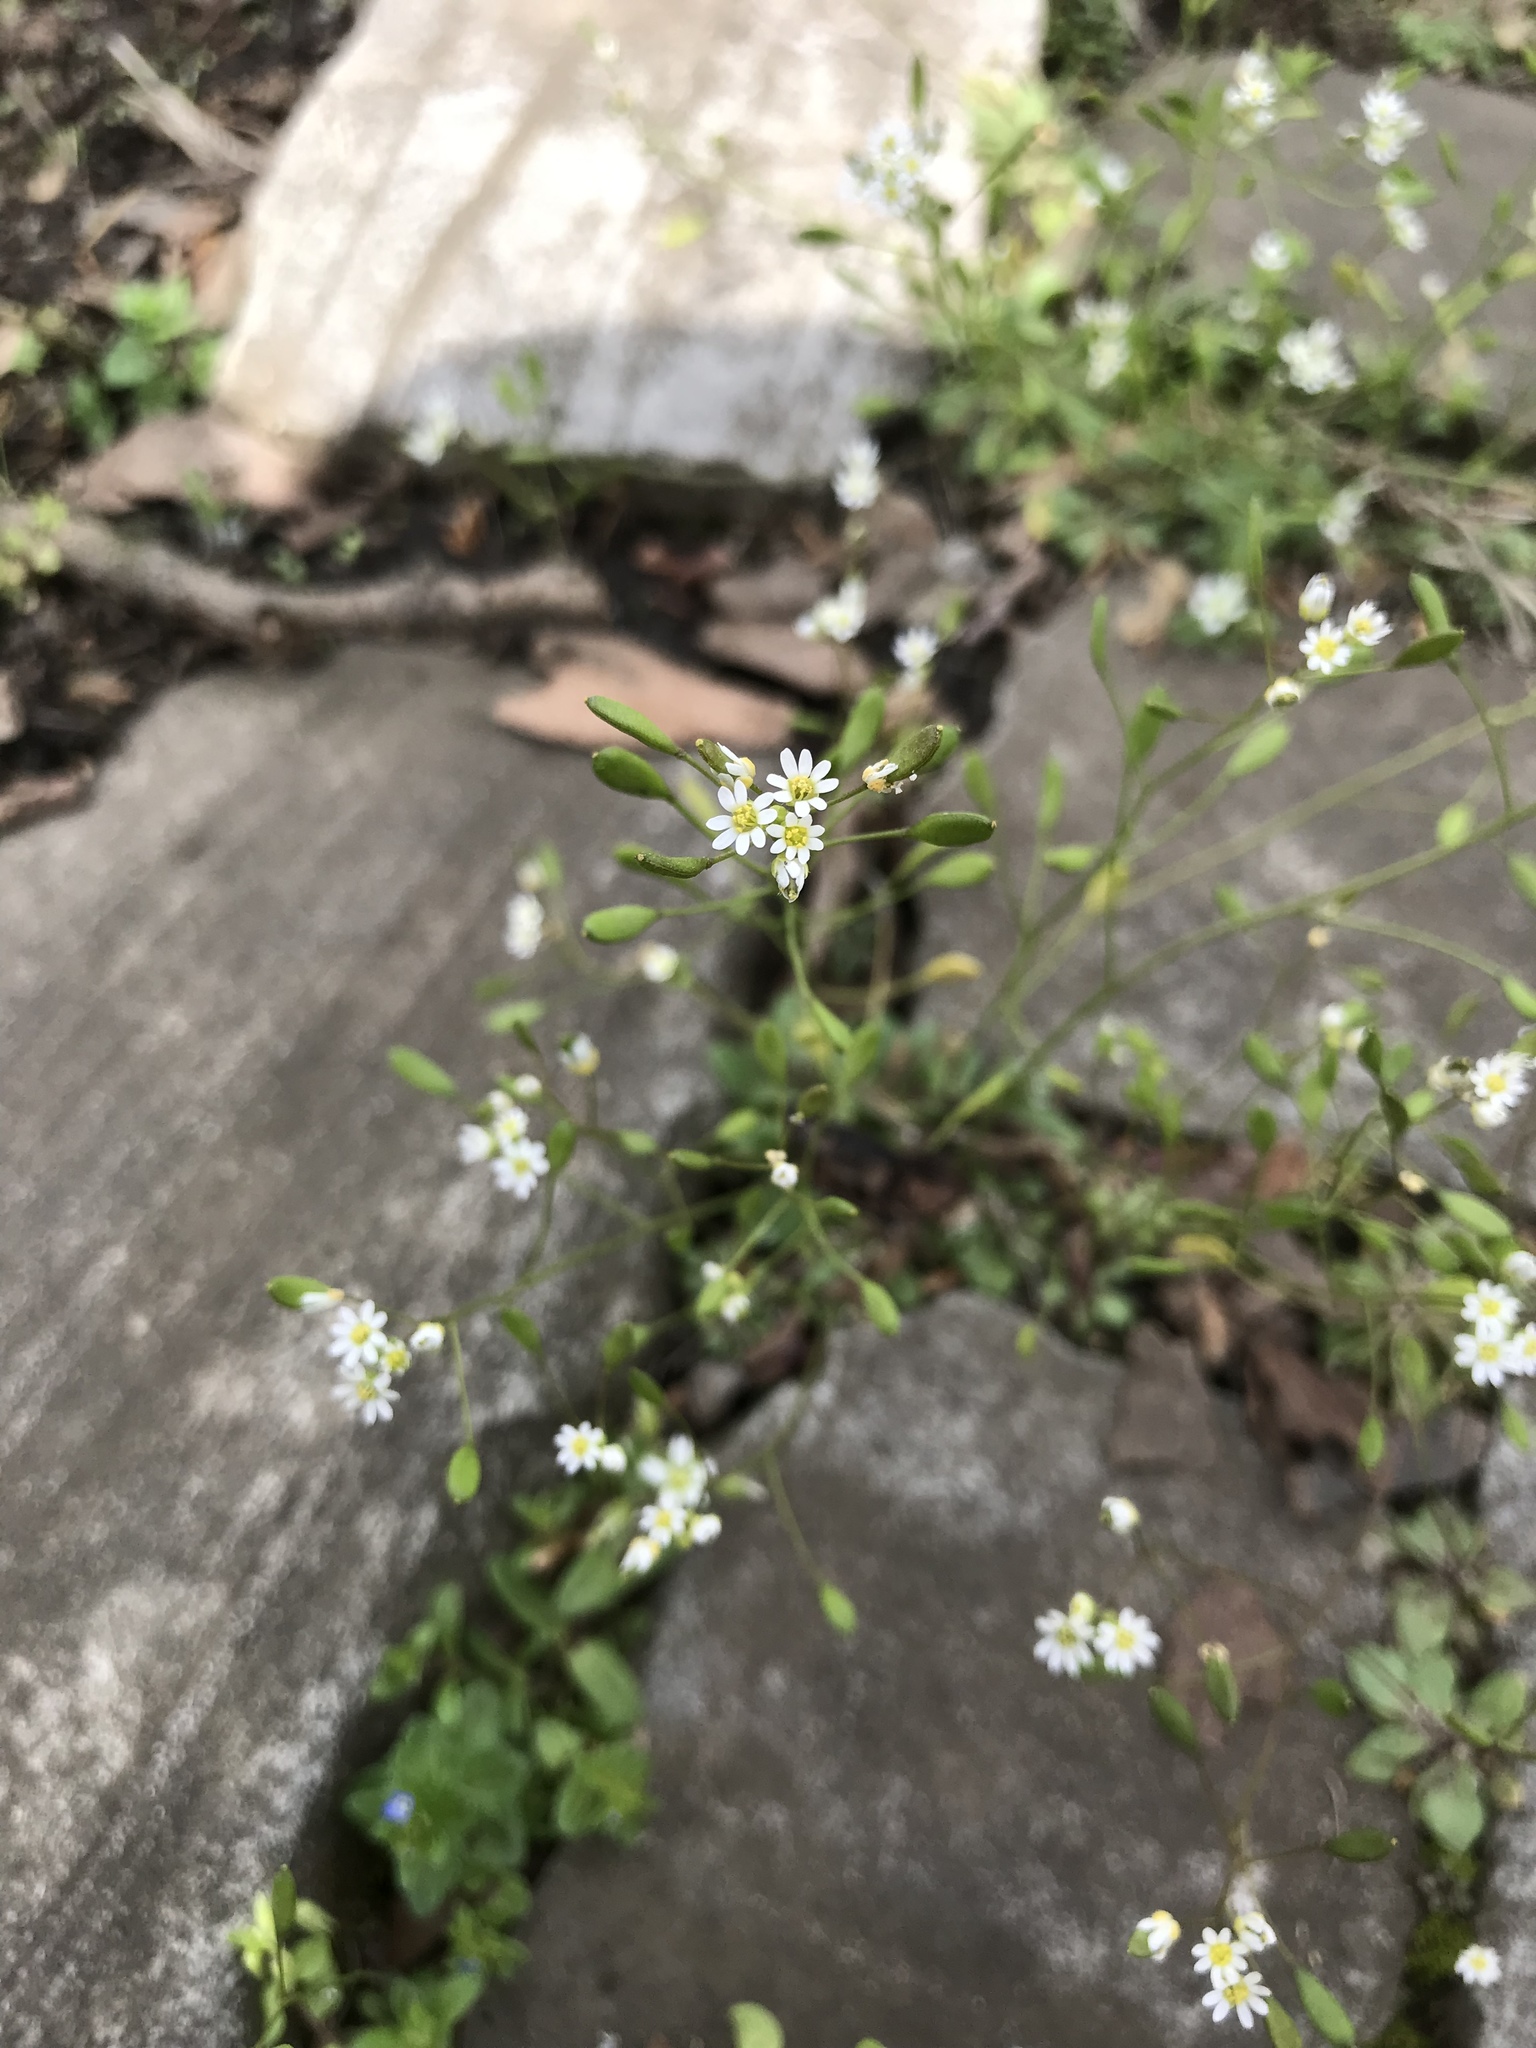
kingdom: Plantae
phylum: Tracheophyta
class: Magnoliopsida
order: Brassicales
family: Brassicaceae
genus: Draba
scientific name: Draba verna
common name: Spring draba
